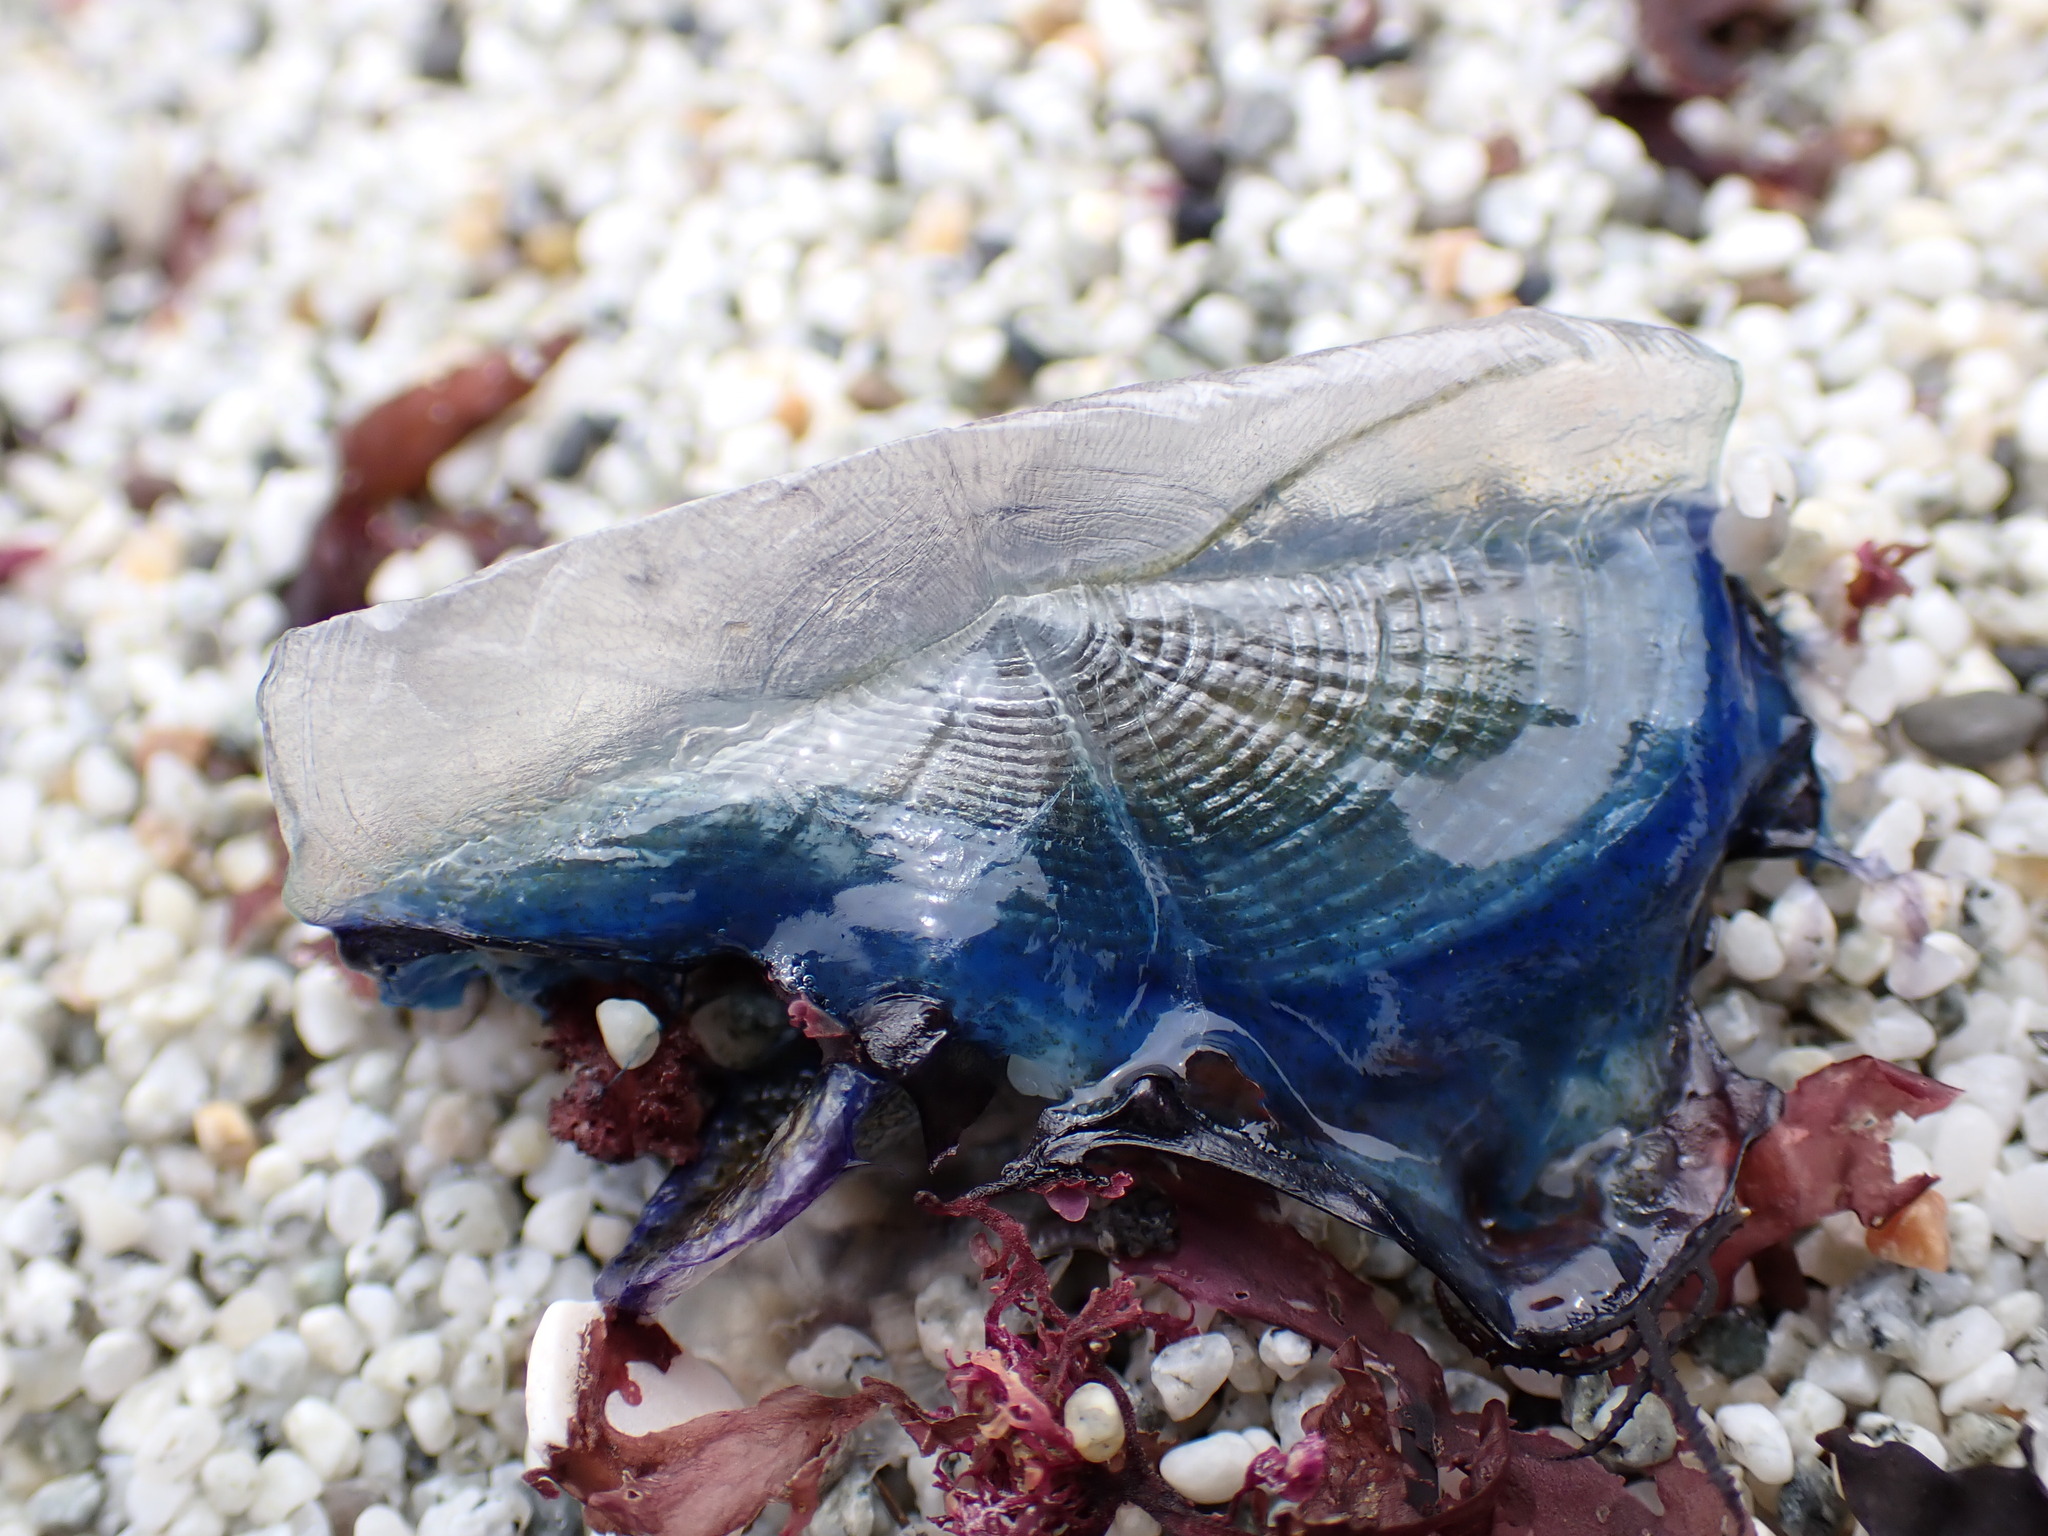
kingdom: Animalia
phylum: Cnidaria
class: Hydrozoa
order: Anthoathecata
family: Porpitidae
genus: Velella
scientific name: Velella velella
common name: By-the-wind-sailor
